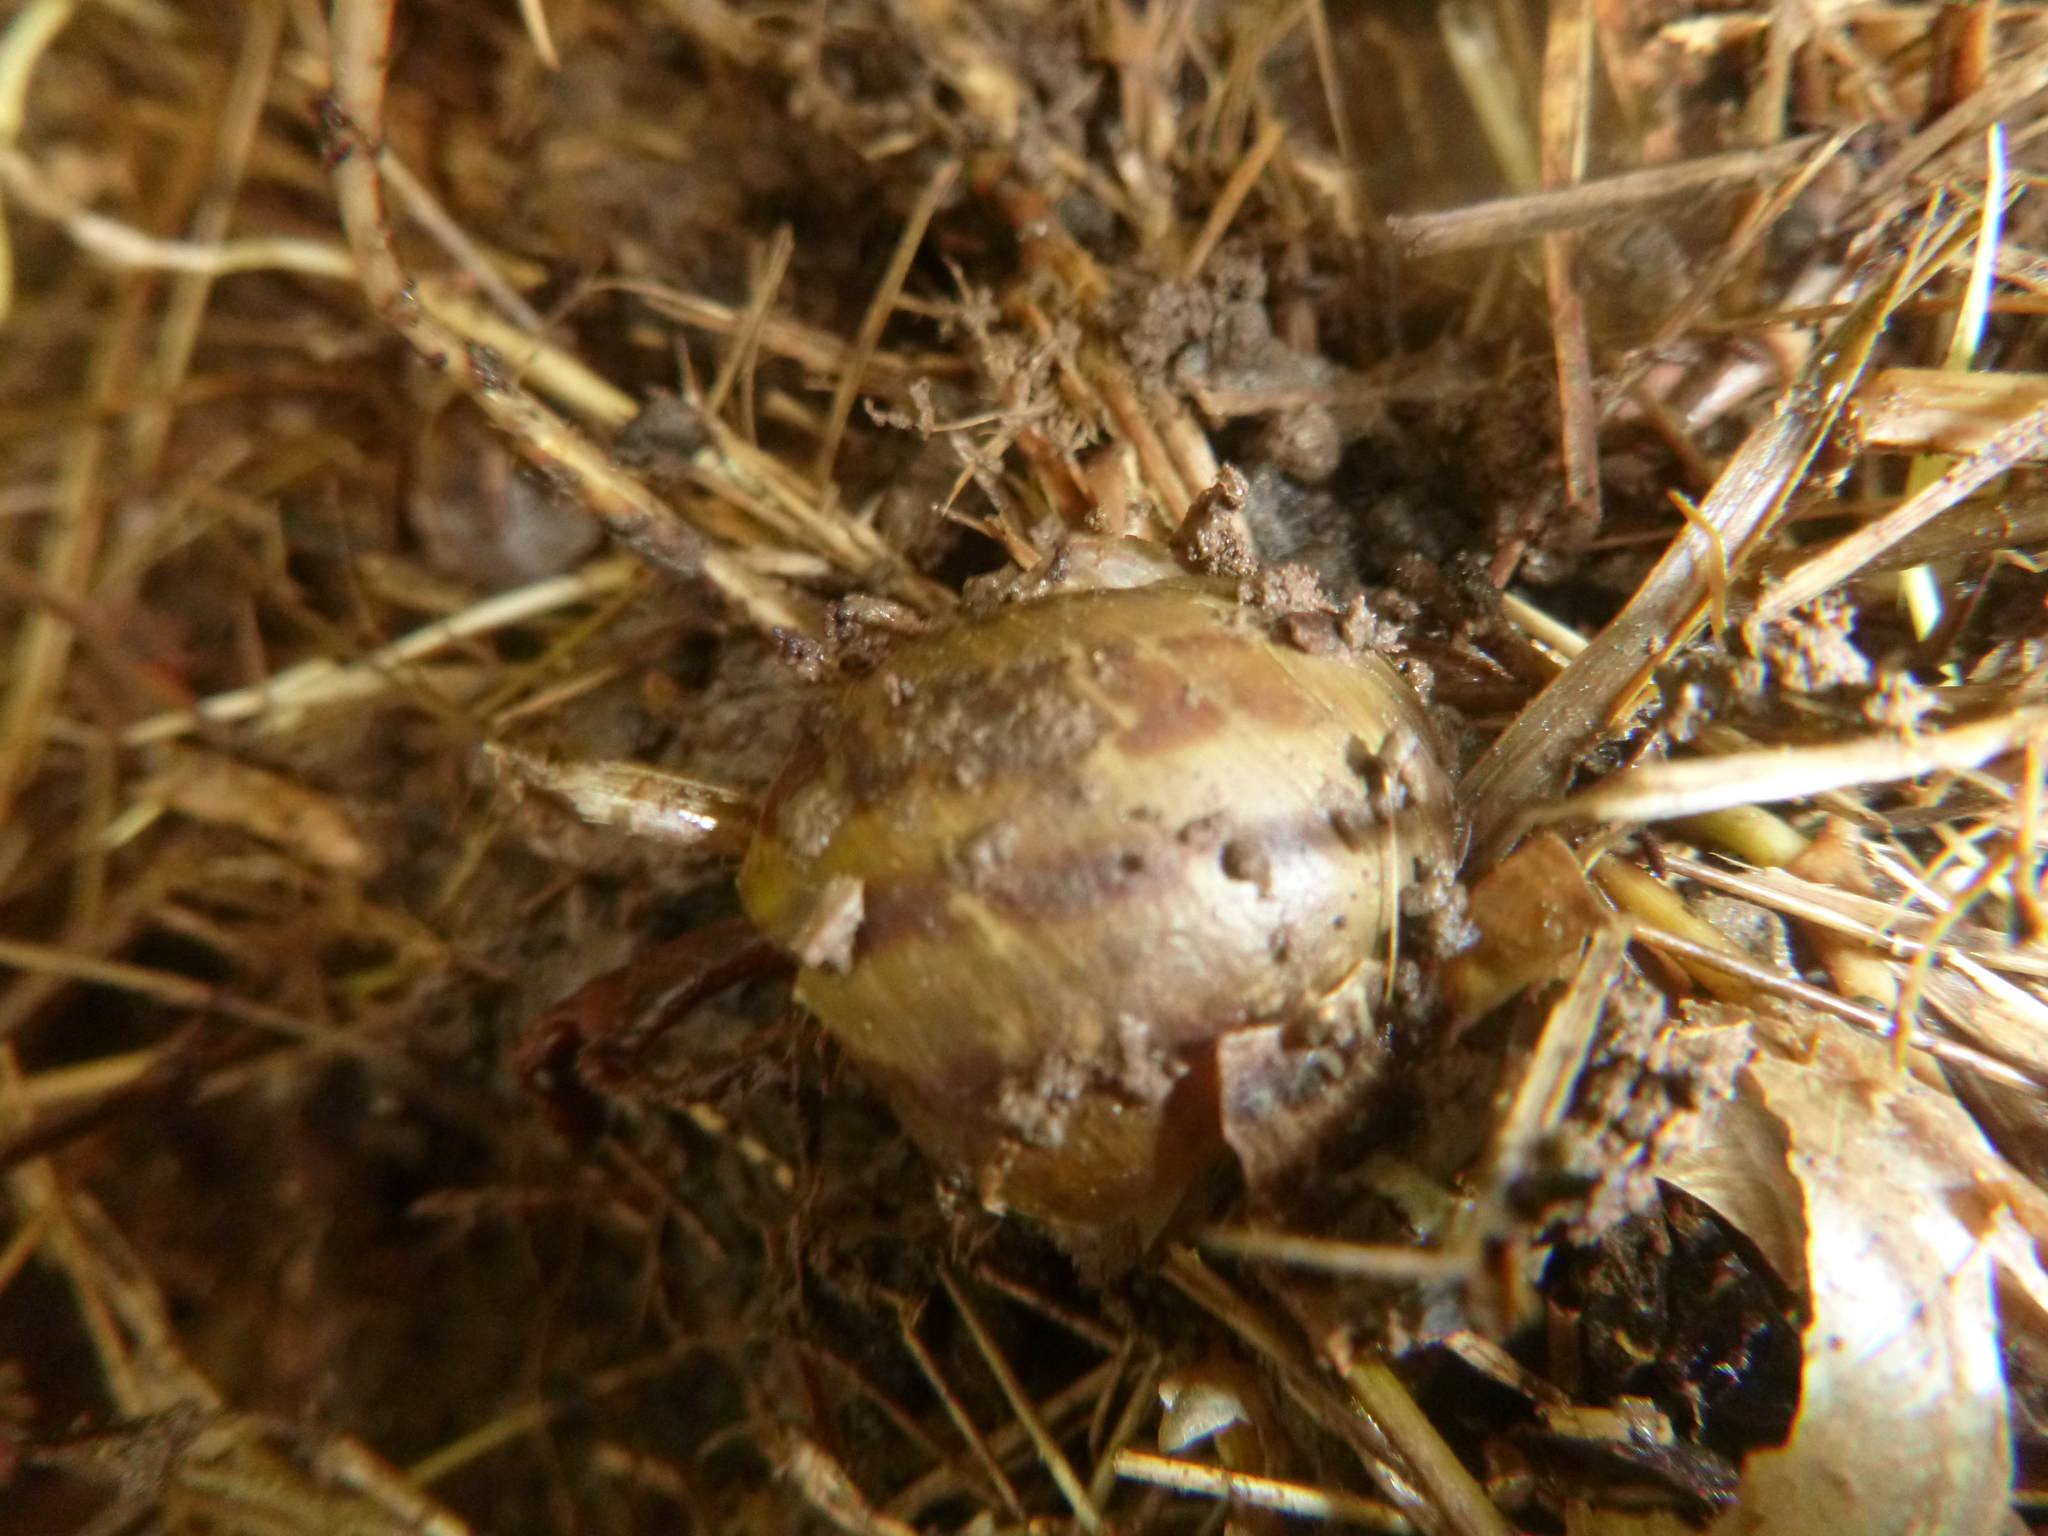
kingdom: Animalia
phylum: Mollusca
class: Gastropoda
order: Stylommatophora
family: Helicidae
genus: Cornu
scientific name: Cornu aspersum
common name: Brown garden snail
